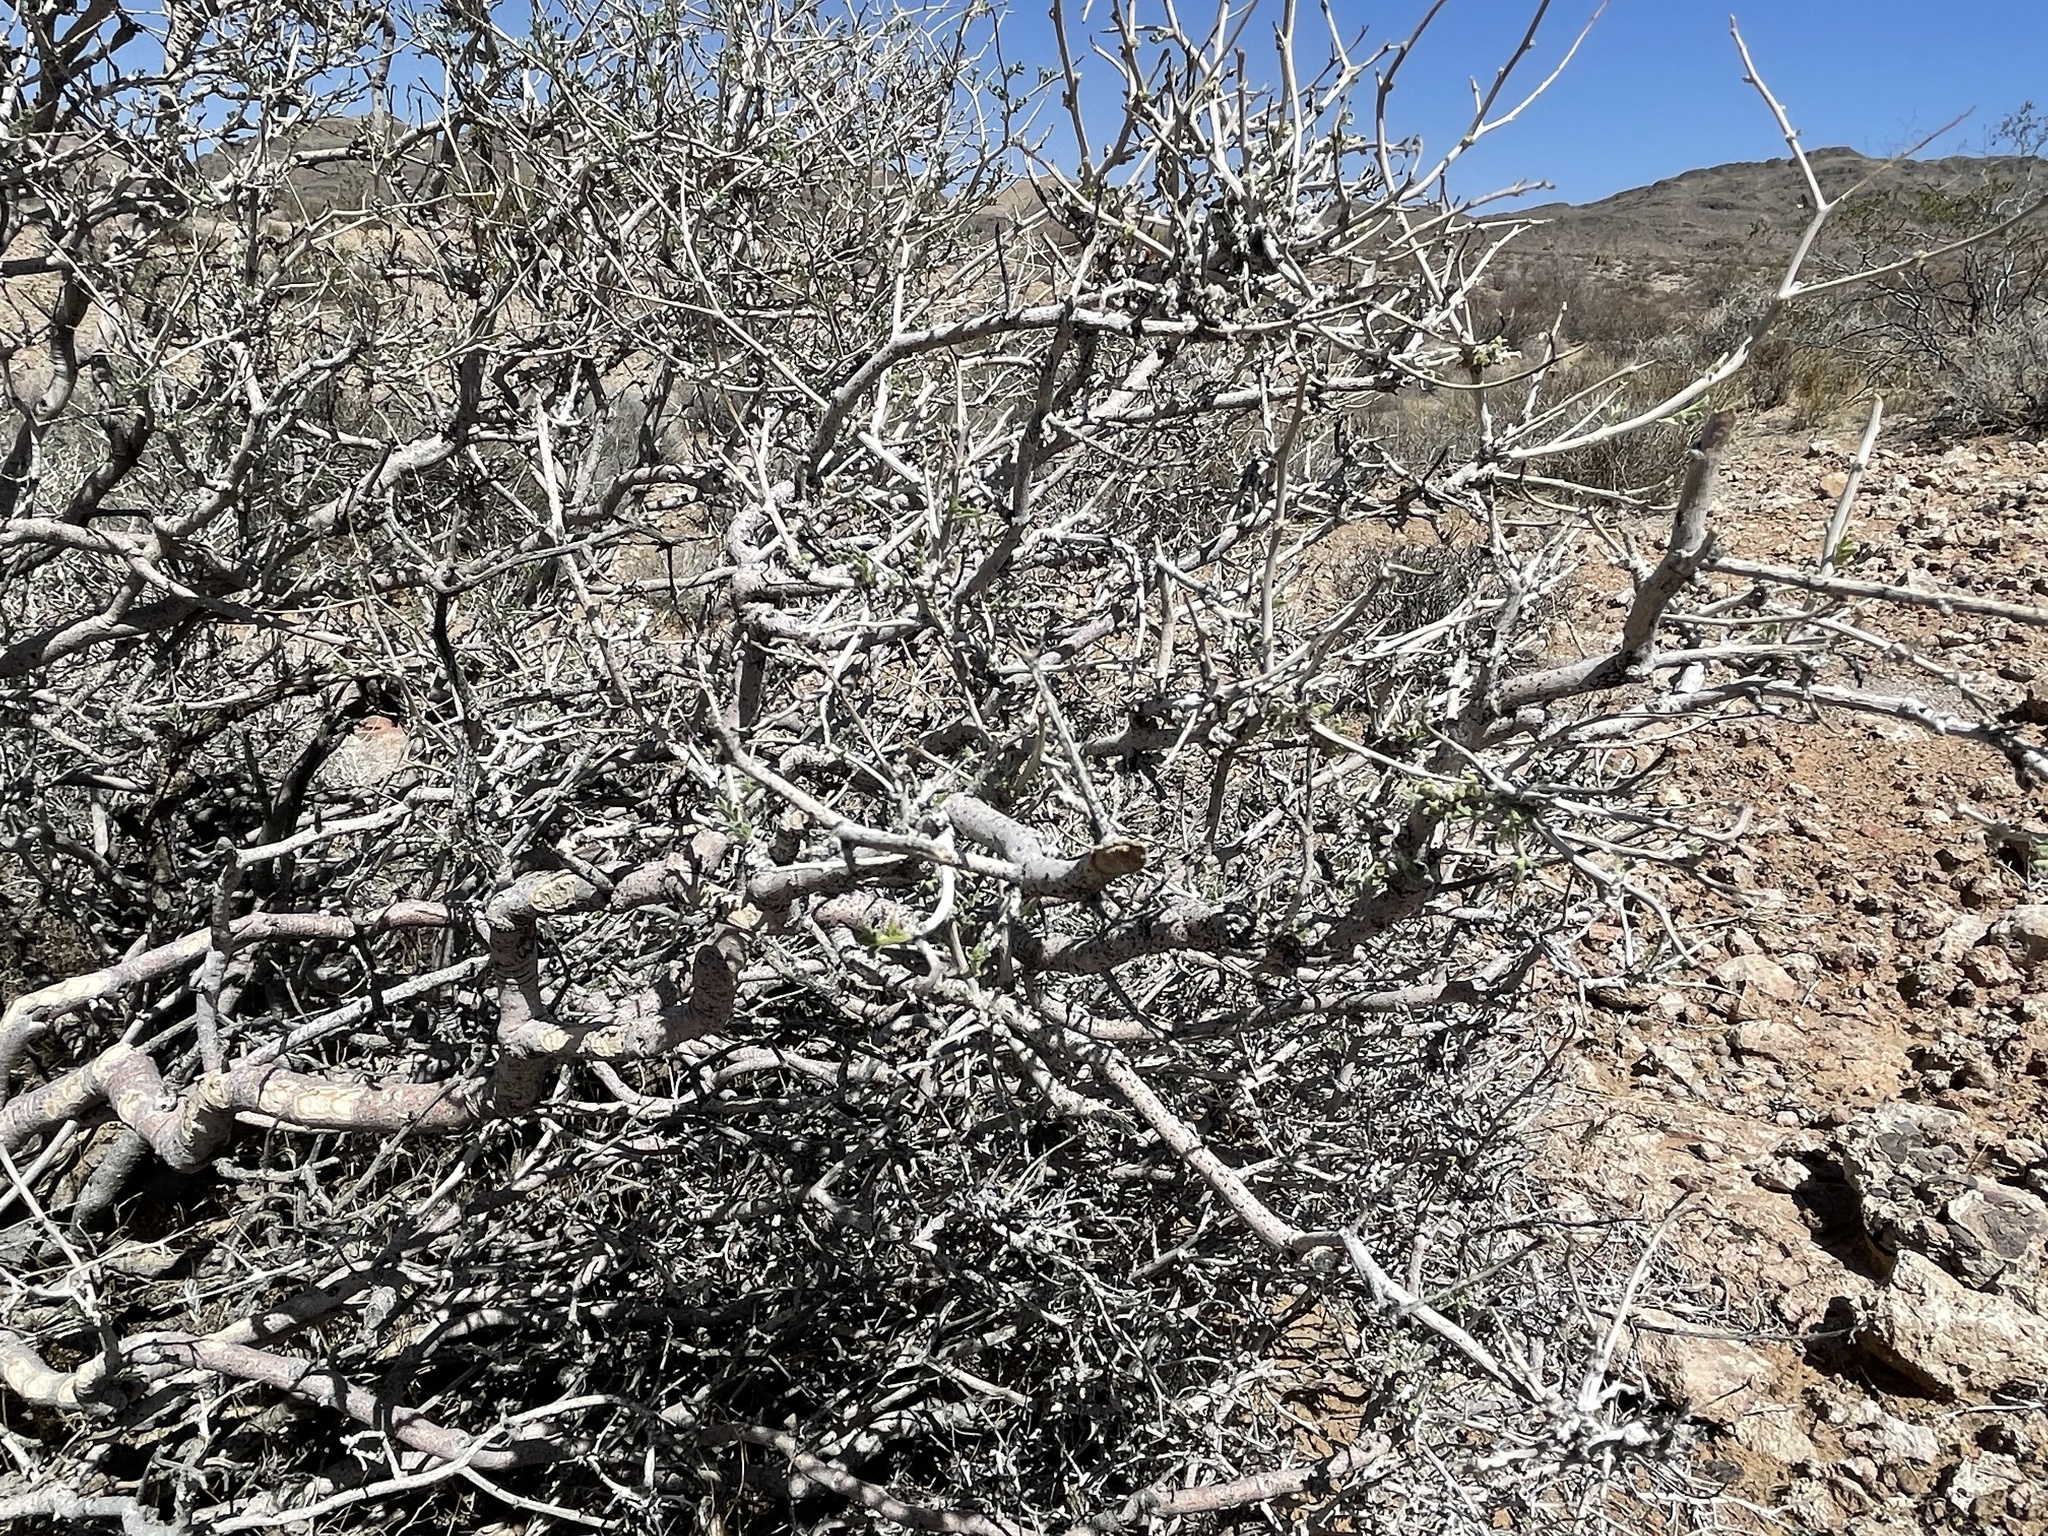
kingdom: Plantae
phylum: Tracheophyta
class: Magnoliopsida
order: Fabales
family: Fabaceae
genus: Psorothamnus
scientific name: Psorothamnus fremontii
